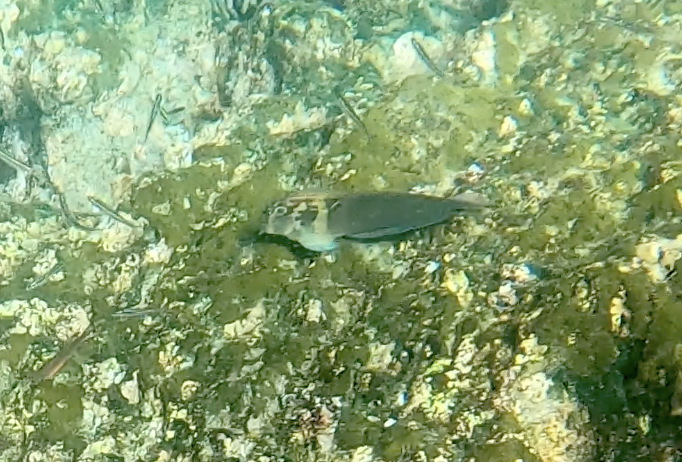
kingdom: Animalia
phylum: Chordata
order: Perciformes
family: Blenniidae
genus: Ophioblennius
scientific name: Ophioblennius steindachneri
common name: Panamic fanged blenny
